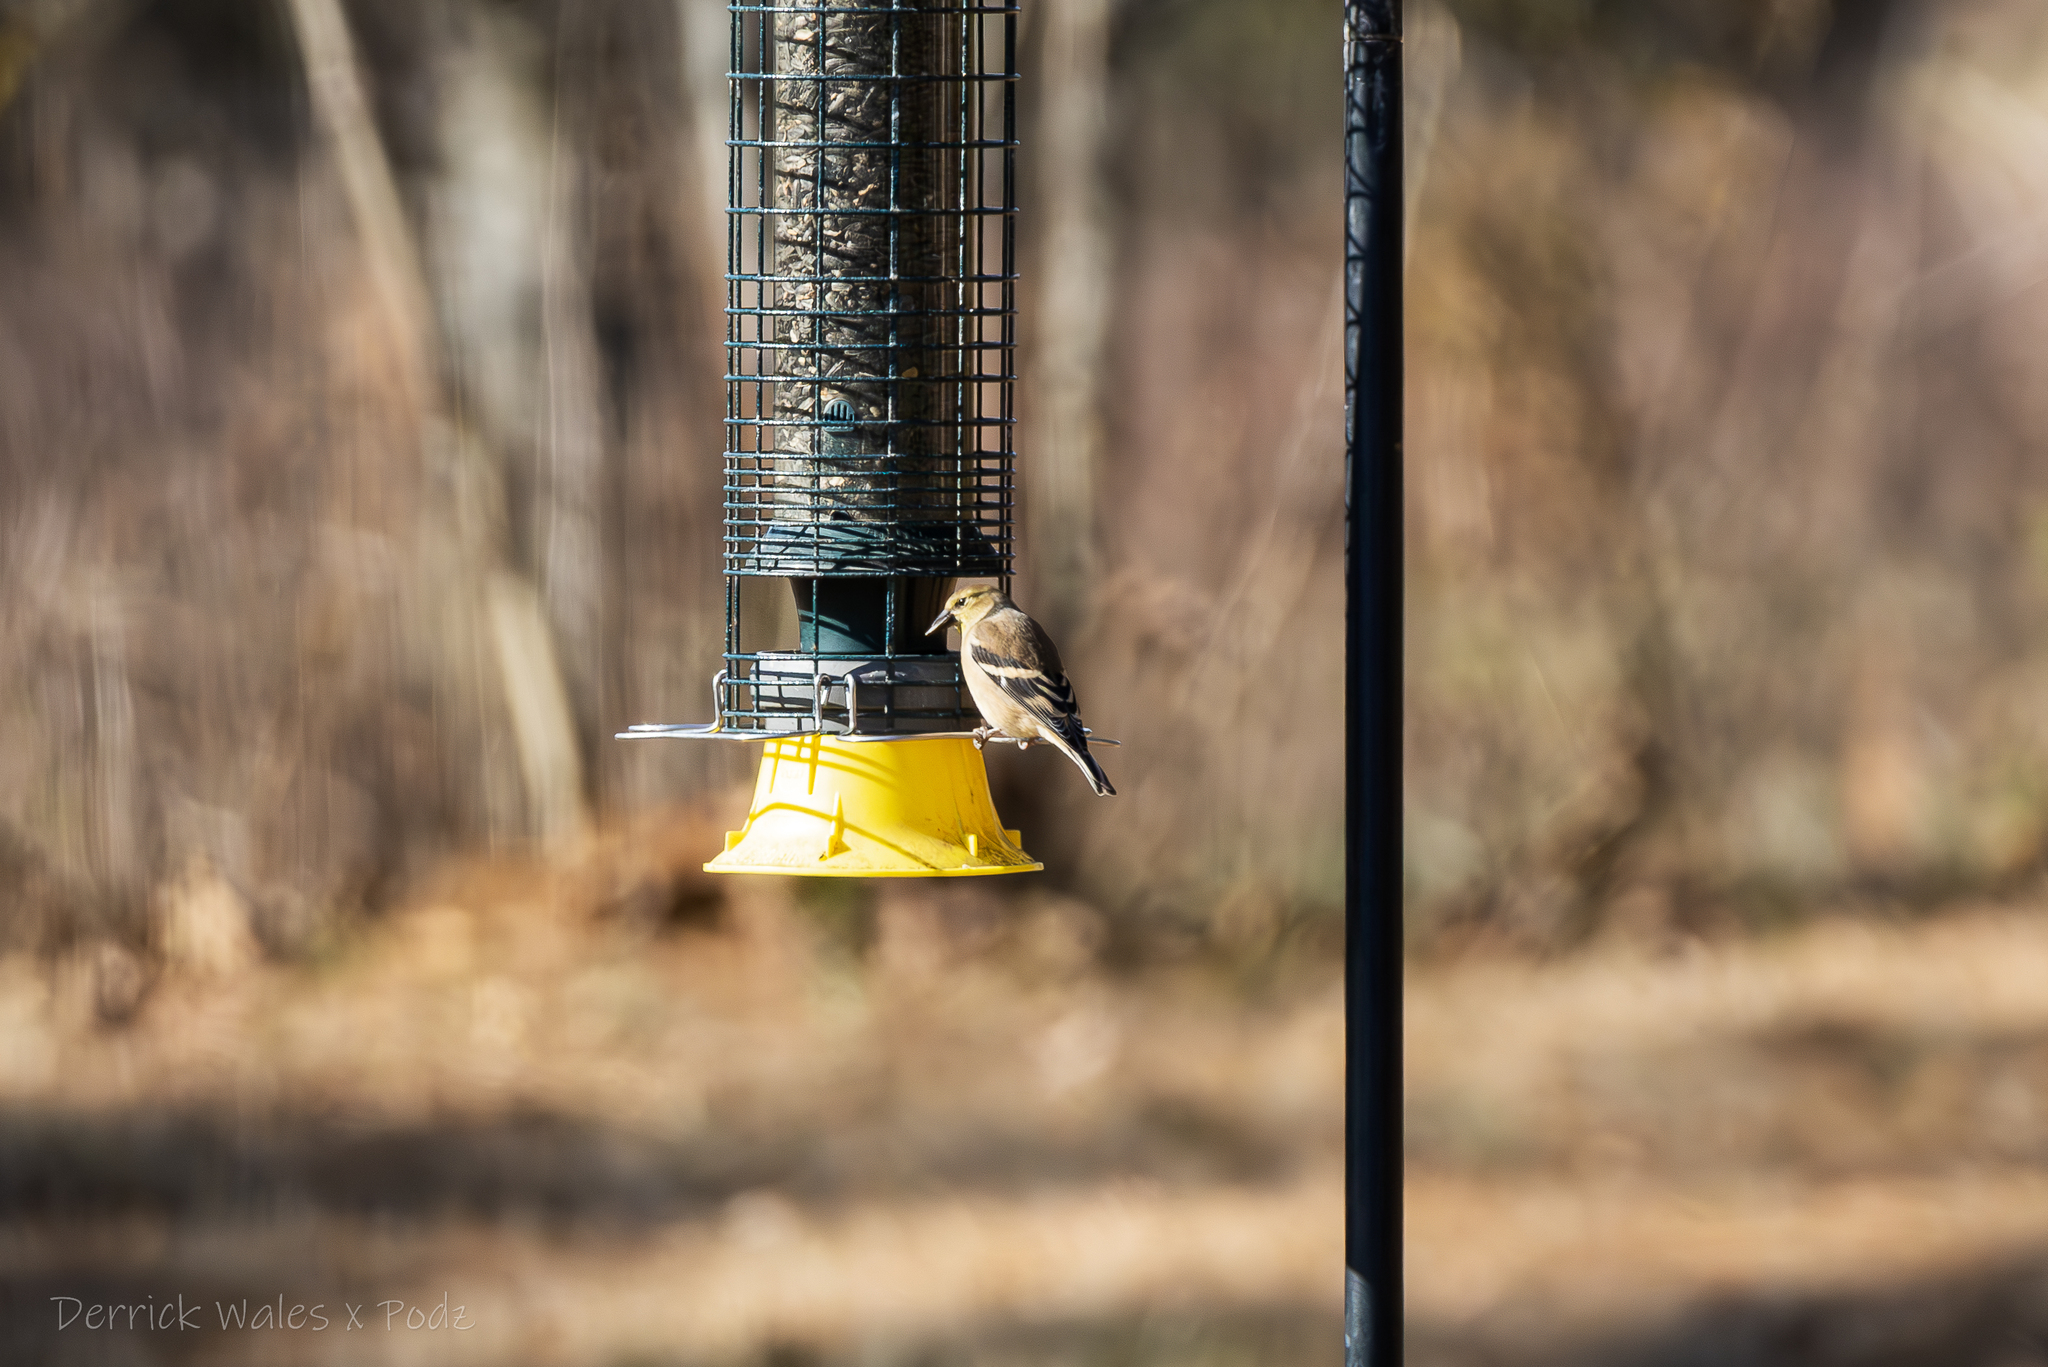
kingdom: Animalia
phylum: Chordata
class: Aves
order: Passeriformes
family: Fringillidae
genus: Spinus
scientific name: Spinus tristis
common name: American goldfinch
